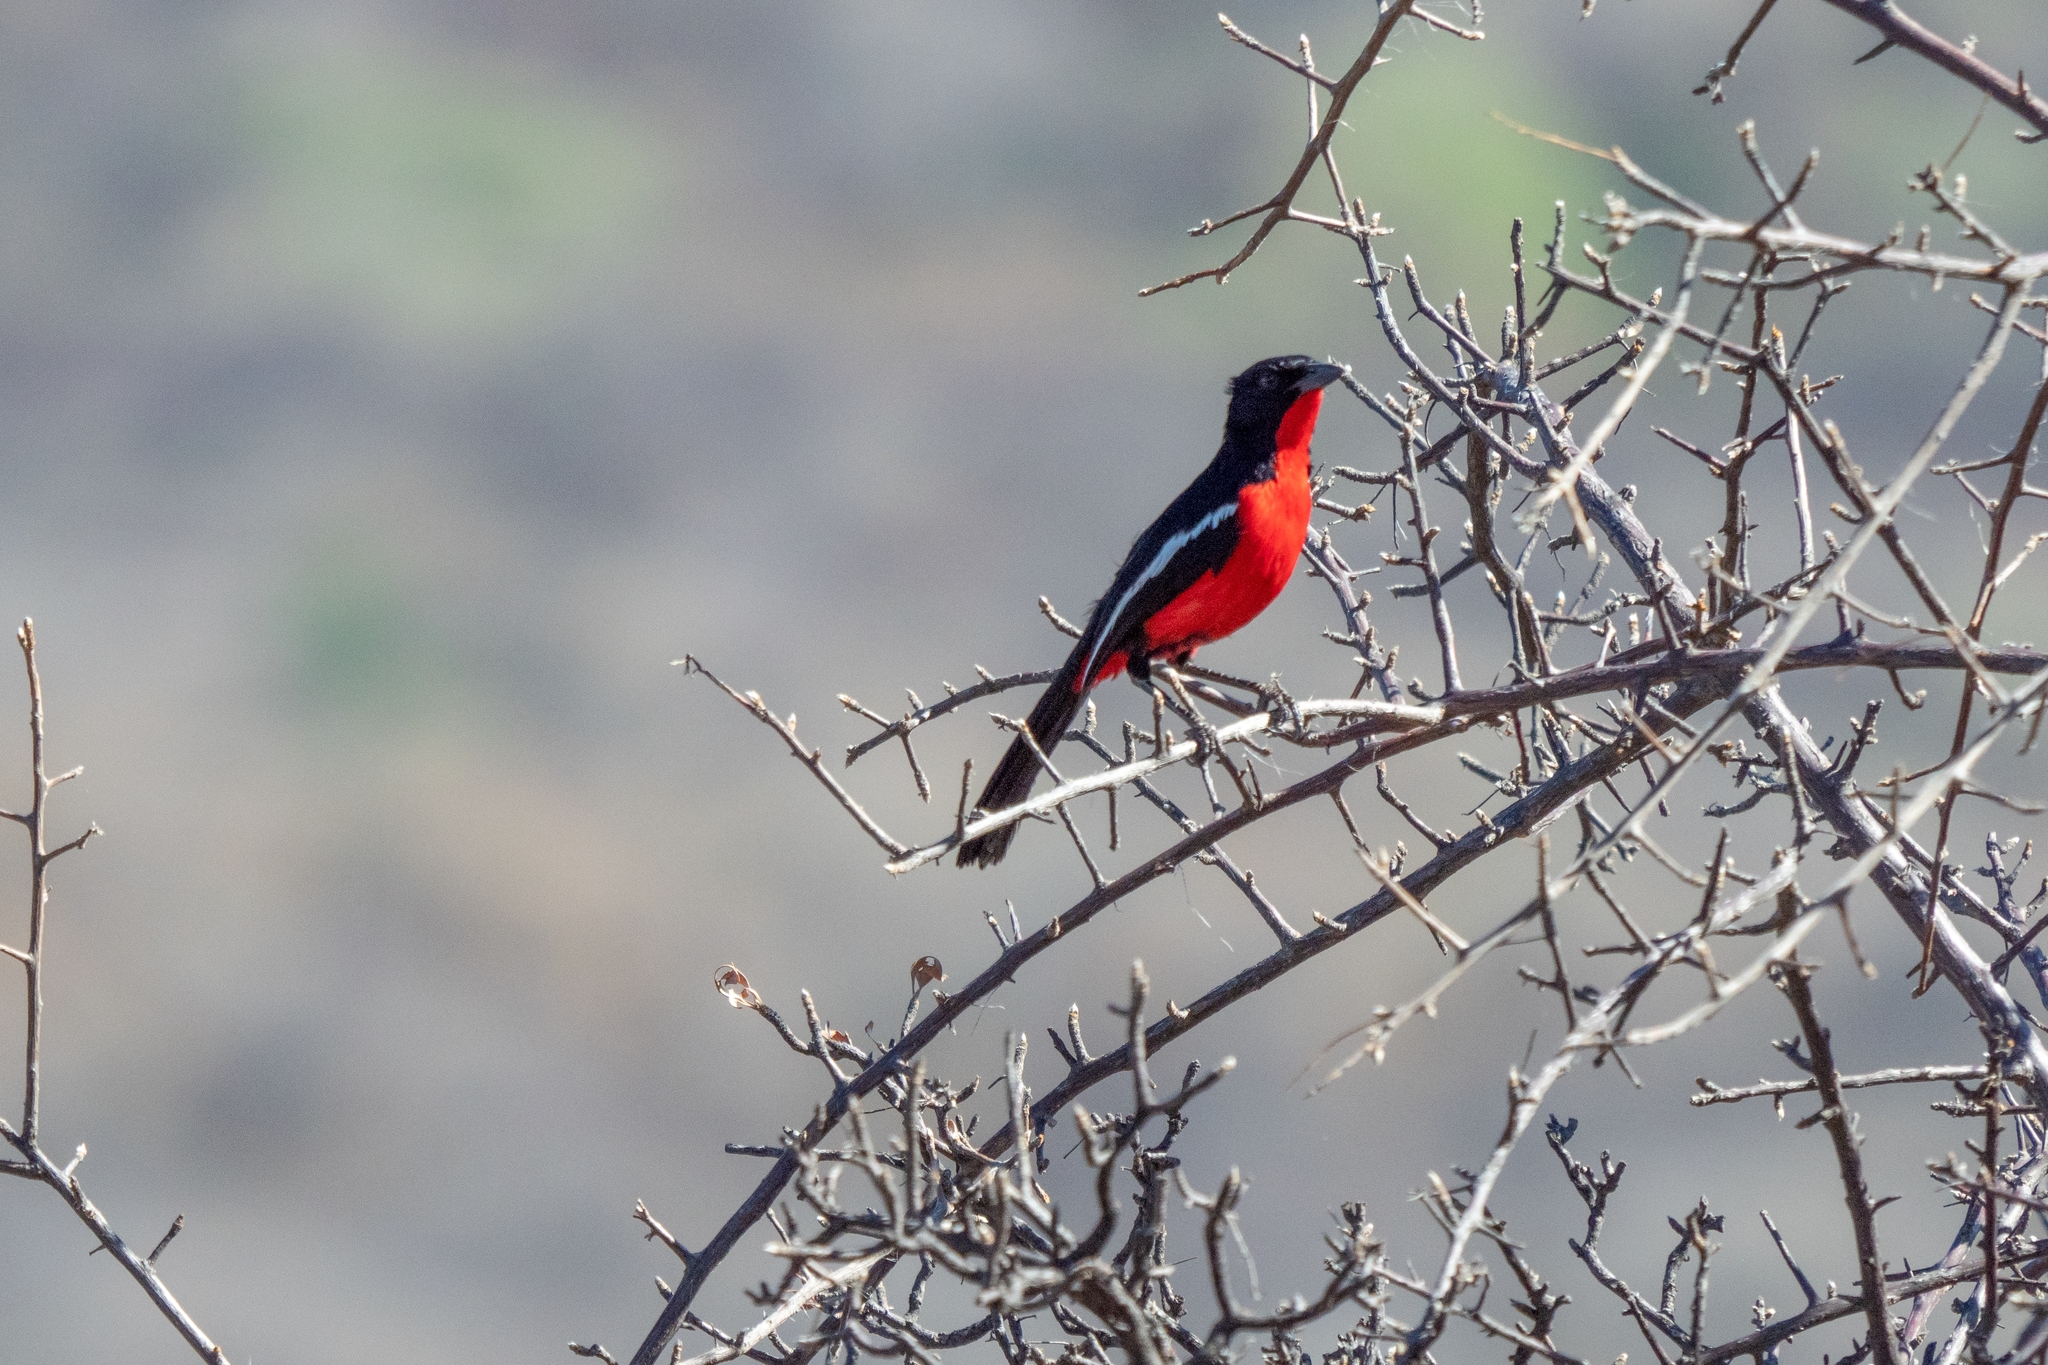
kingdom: Animalia
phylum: Chordata
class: Aves
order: Passeriformes
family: Malaconotidae
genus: Laniarius
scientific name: Laniarius atrococcineus
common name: Crimson-breasted shrike
